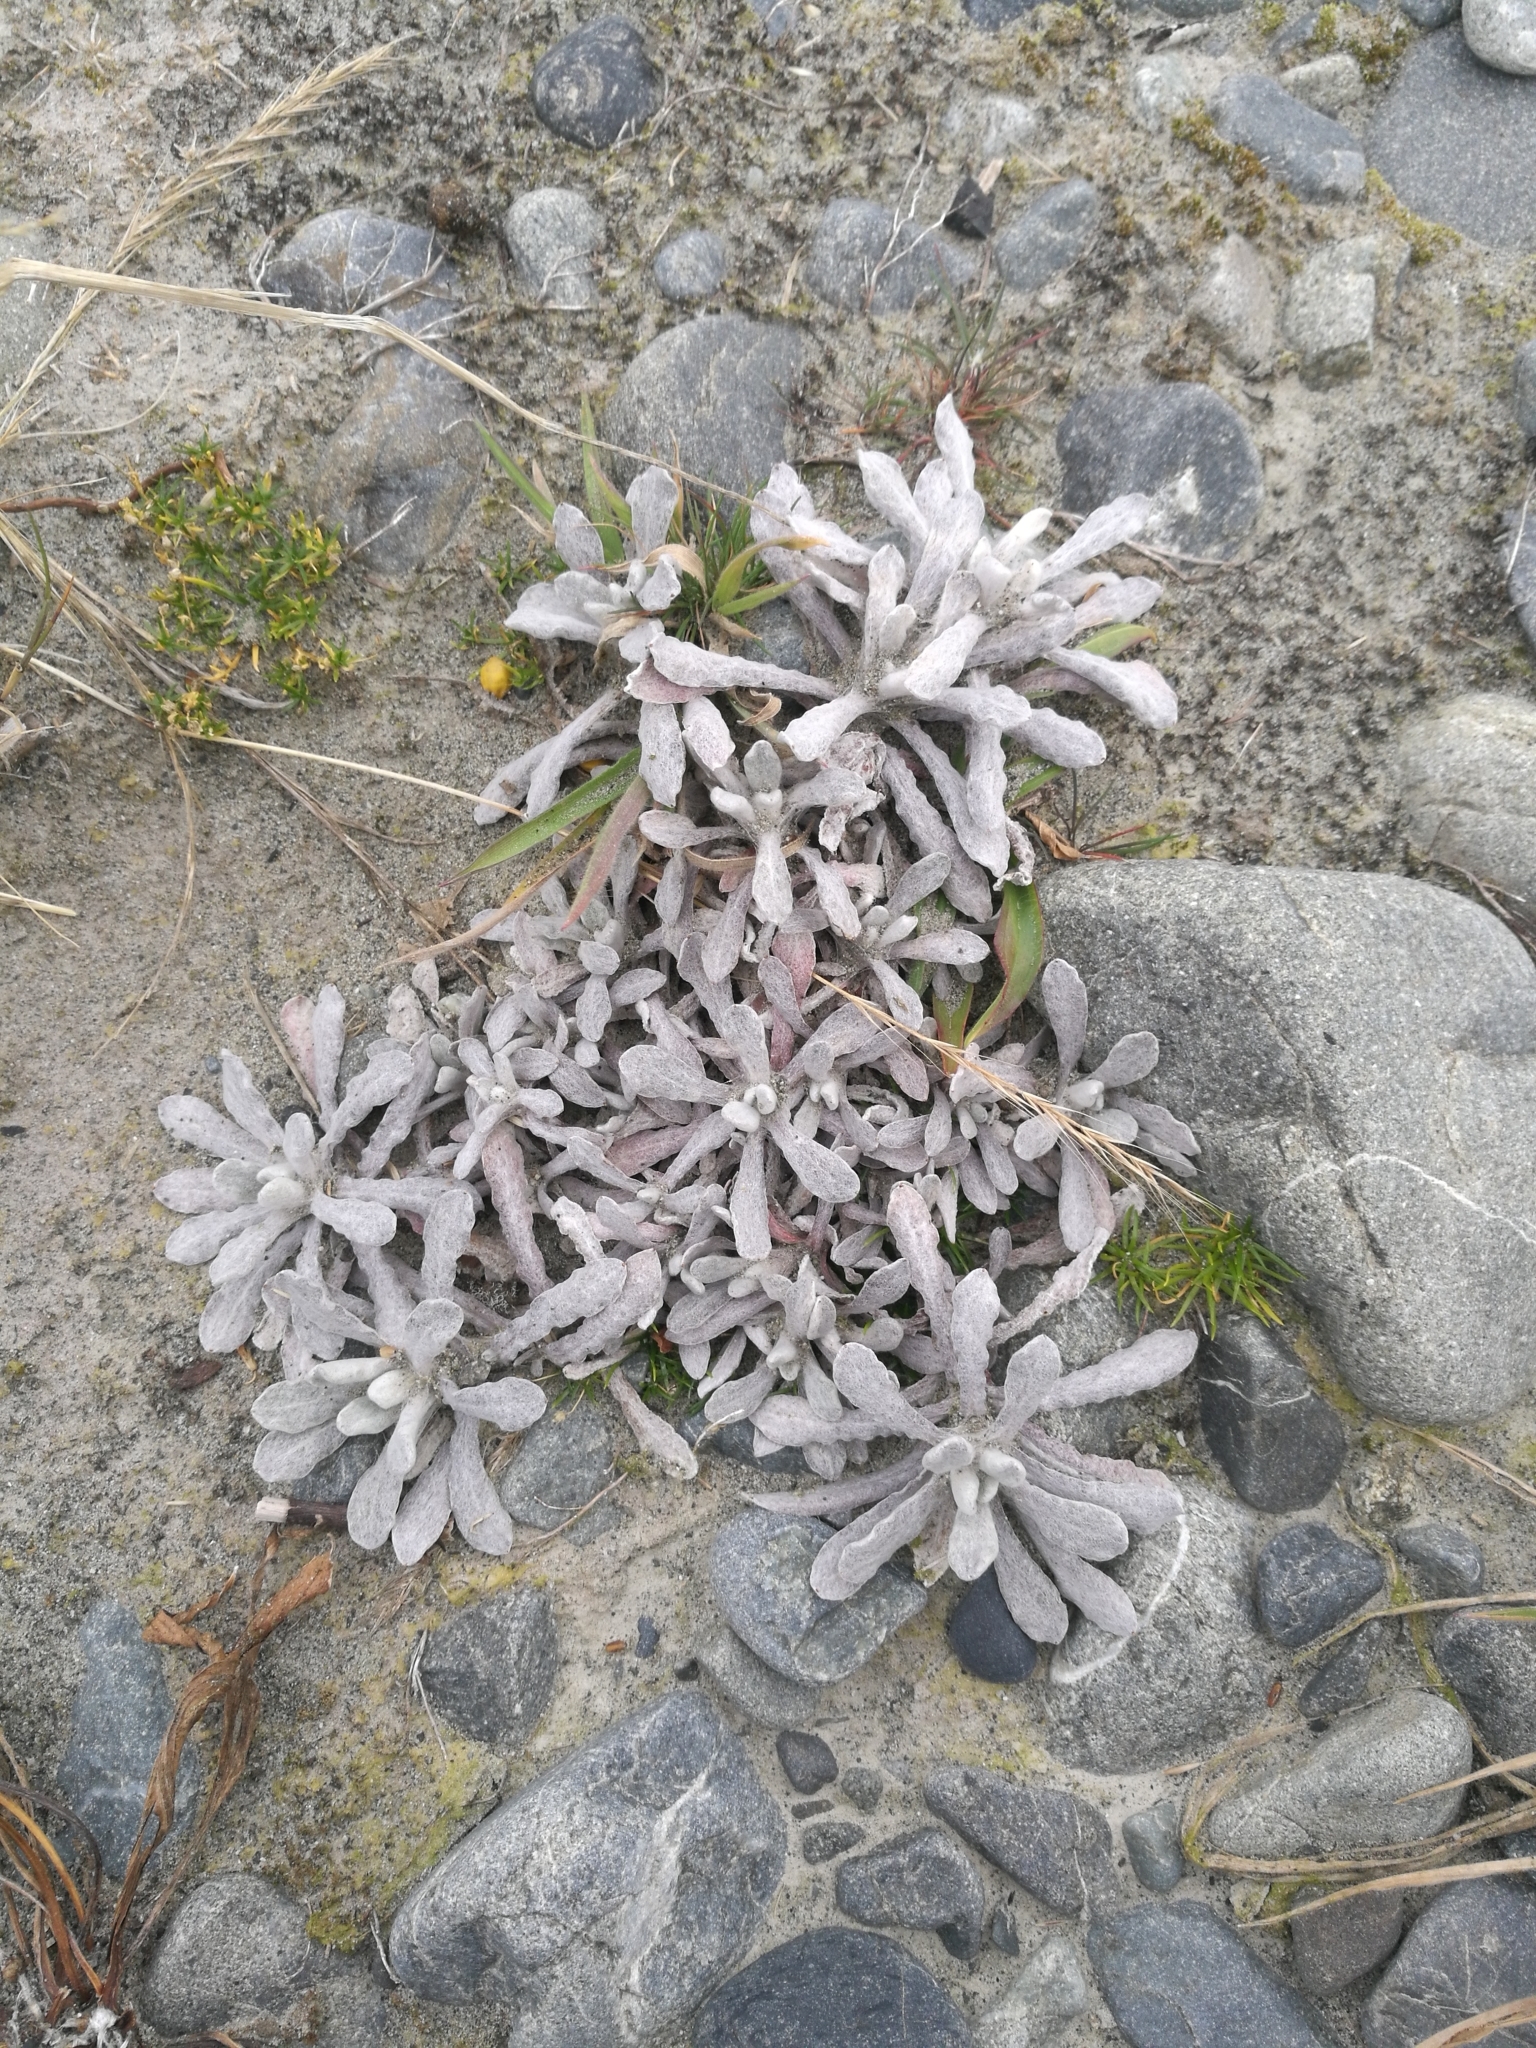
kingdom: Plantae
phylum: Tracheophyta
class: Magnoliopsida
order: Asterales
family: Asteraceae
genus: Helichrysum
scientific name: Helichrysum luteoalbum
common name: Daisy
